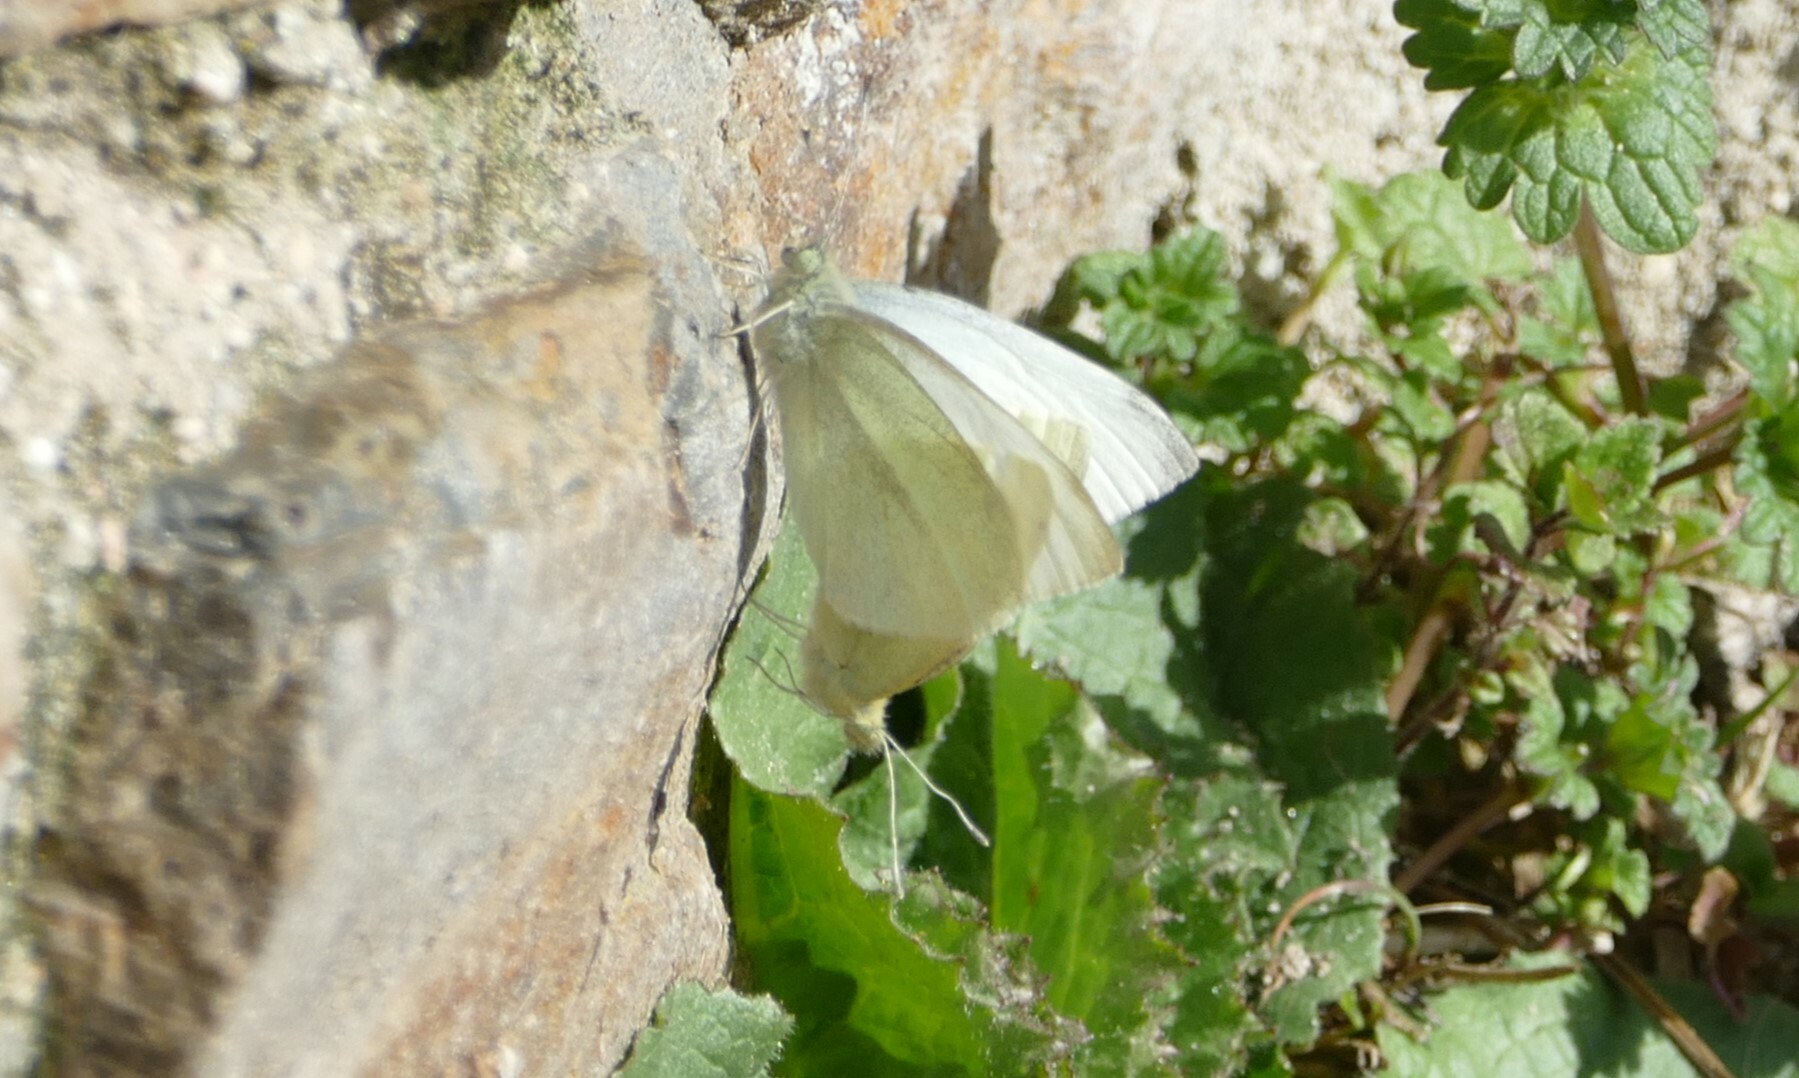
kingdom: Animalia
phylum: Arthropoda
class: Insecta
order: Lepidoptera
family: Pieridae
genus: Pieris
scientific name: Pieris rapae
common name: Small white
